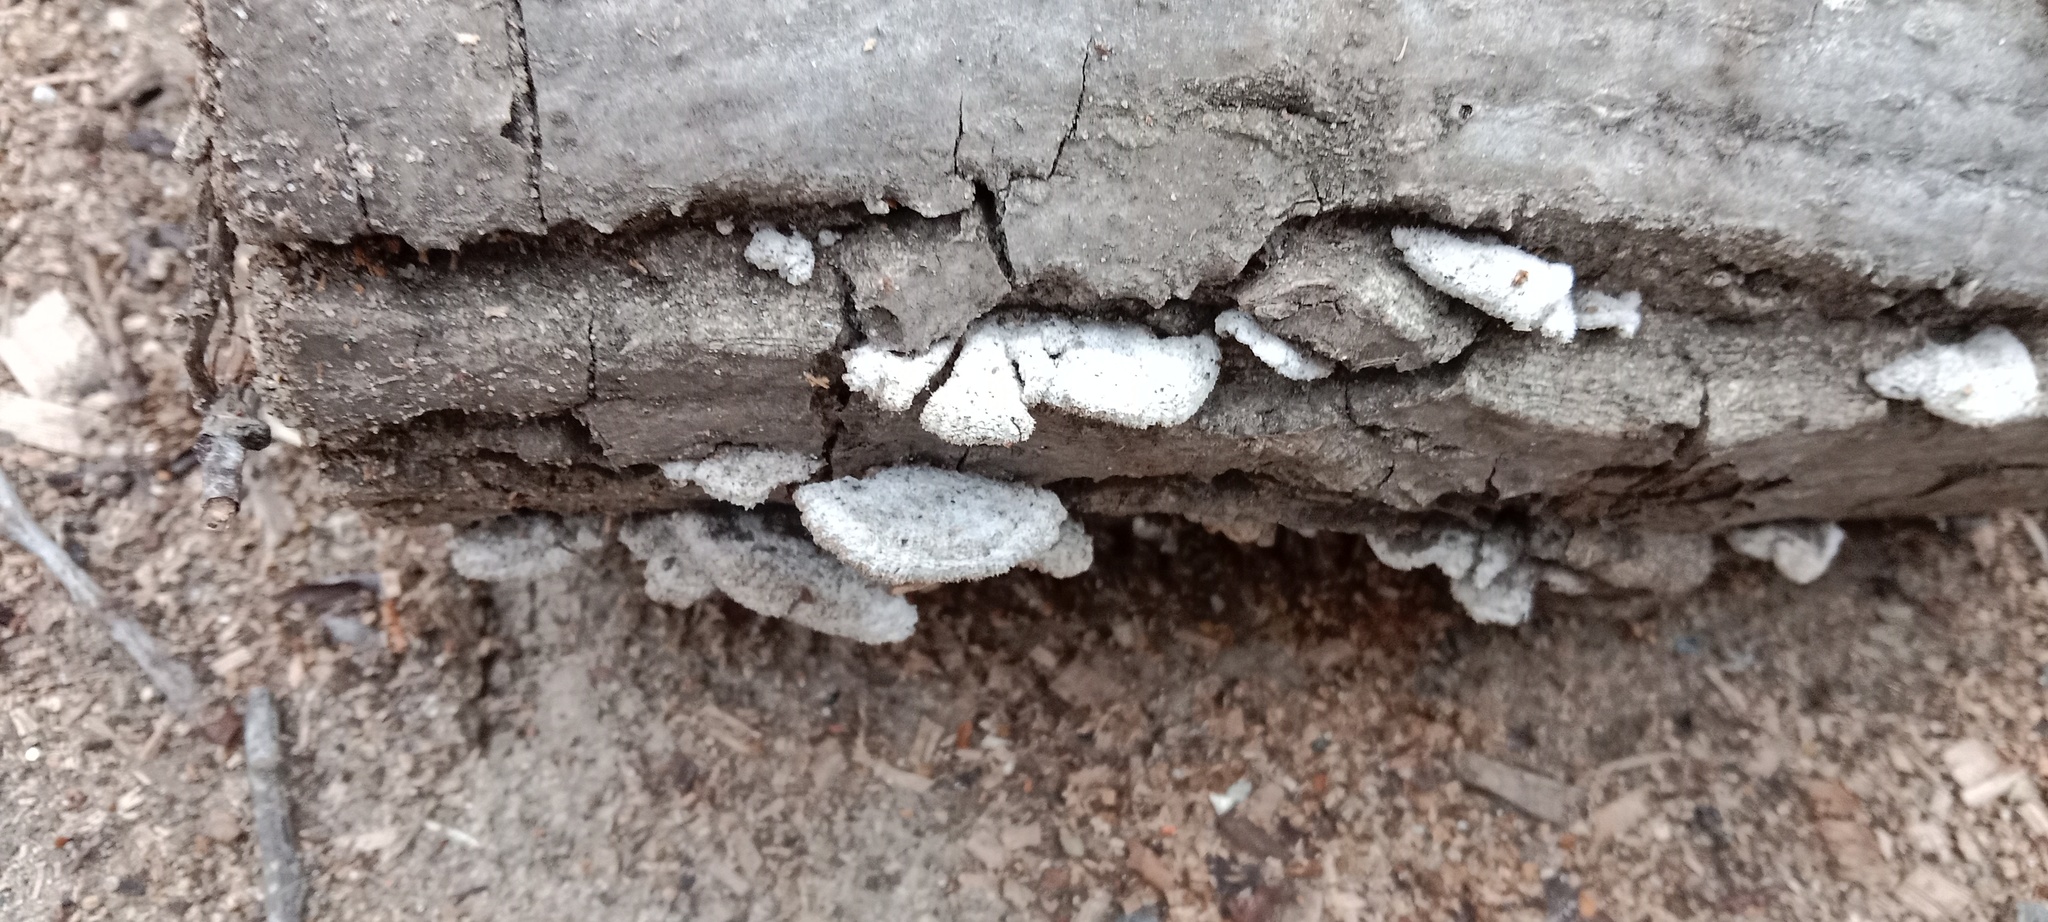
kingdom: Fungi
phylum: Basidiomycota
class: Agaricomycetes
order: Agaricales
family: Schizophyllaceae
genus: Schizophyllum
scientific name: Schizophyllum commune
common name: Common porecrust
